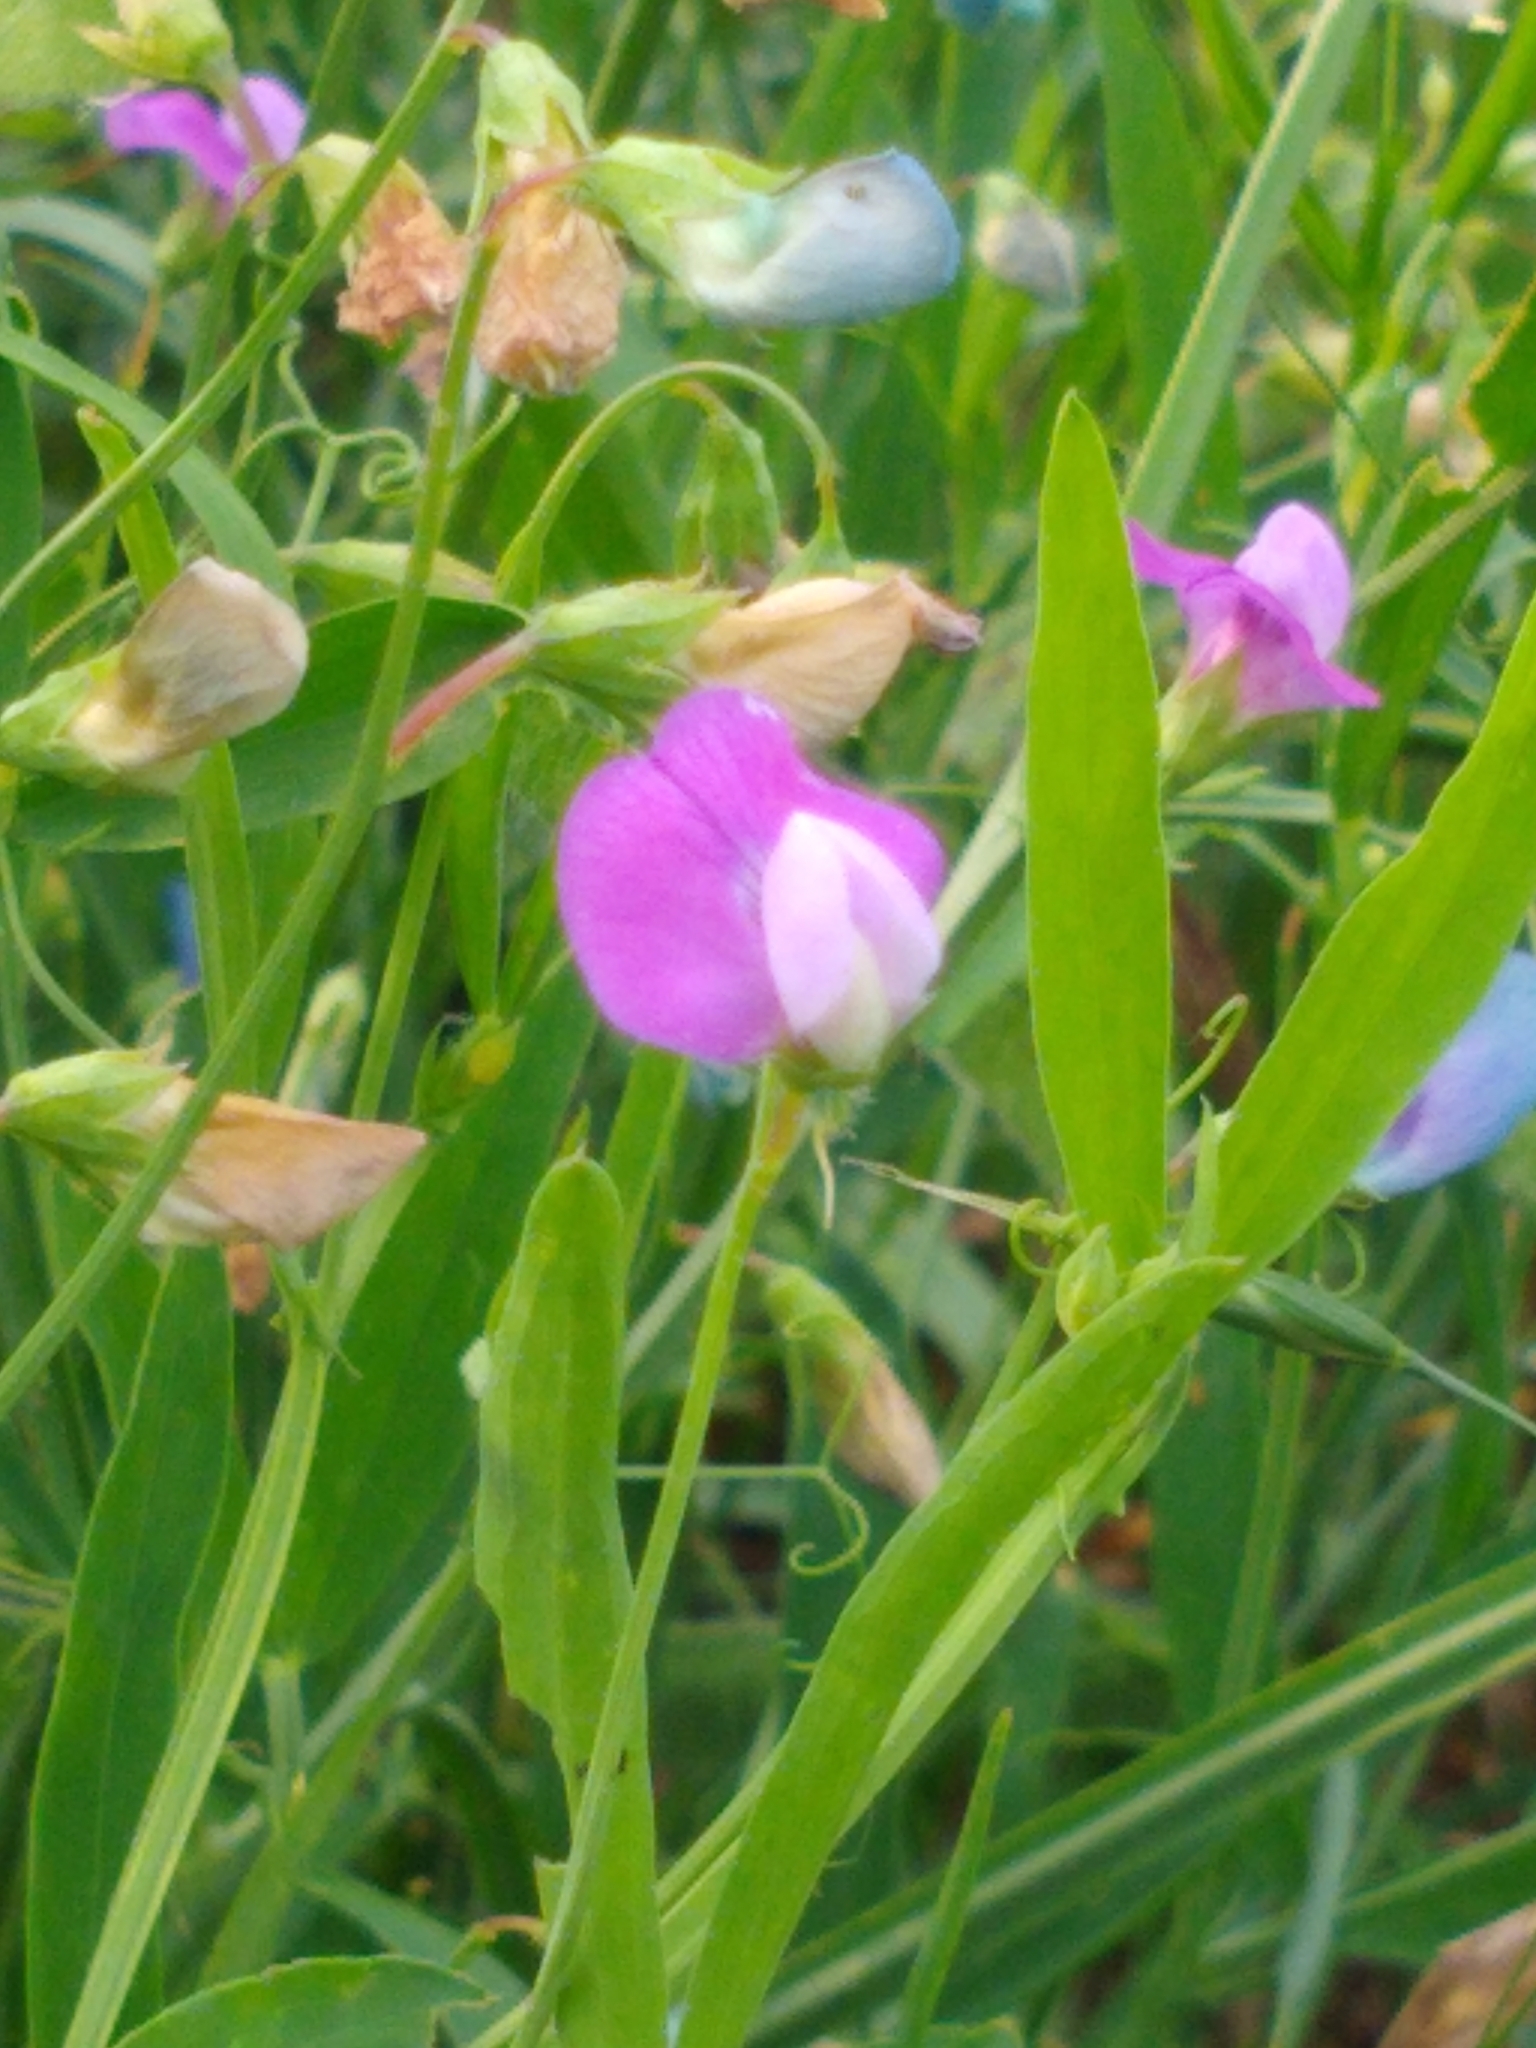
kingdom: Plantae
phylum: Tracheophyta
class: Magnoliopsida
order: Fabales
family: Fabaceae
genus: Lathyrus
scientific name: Lathyrus hirsutus
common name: Hairy vetchling
